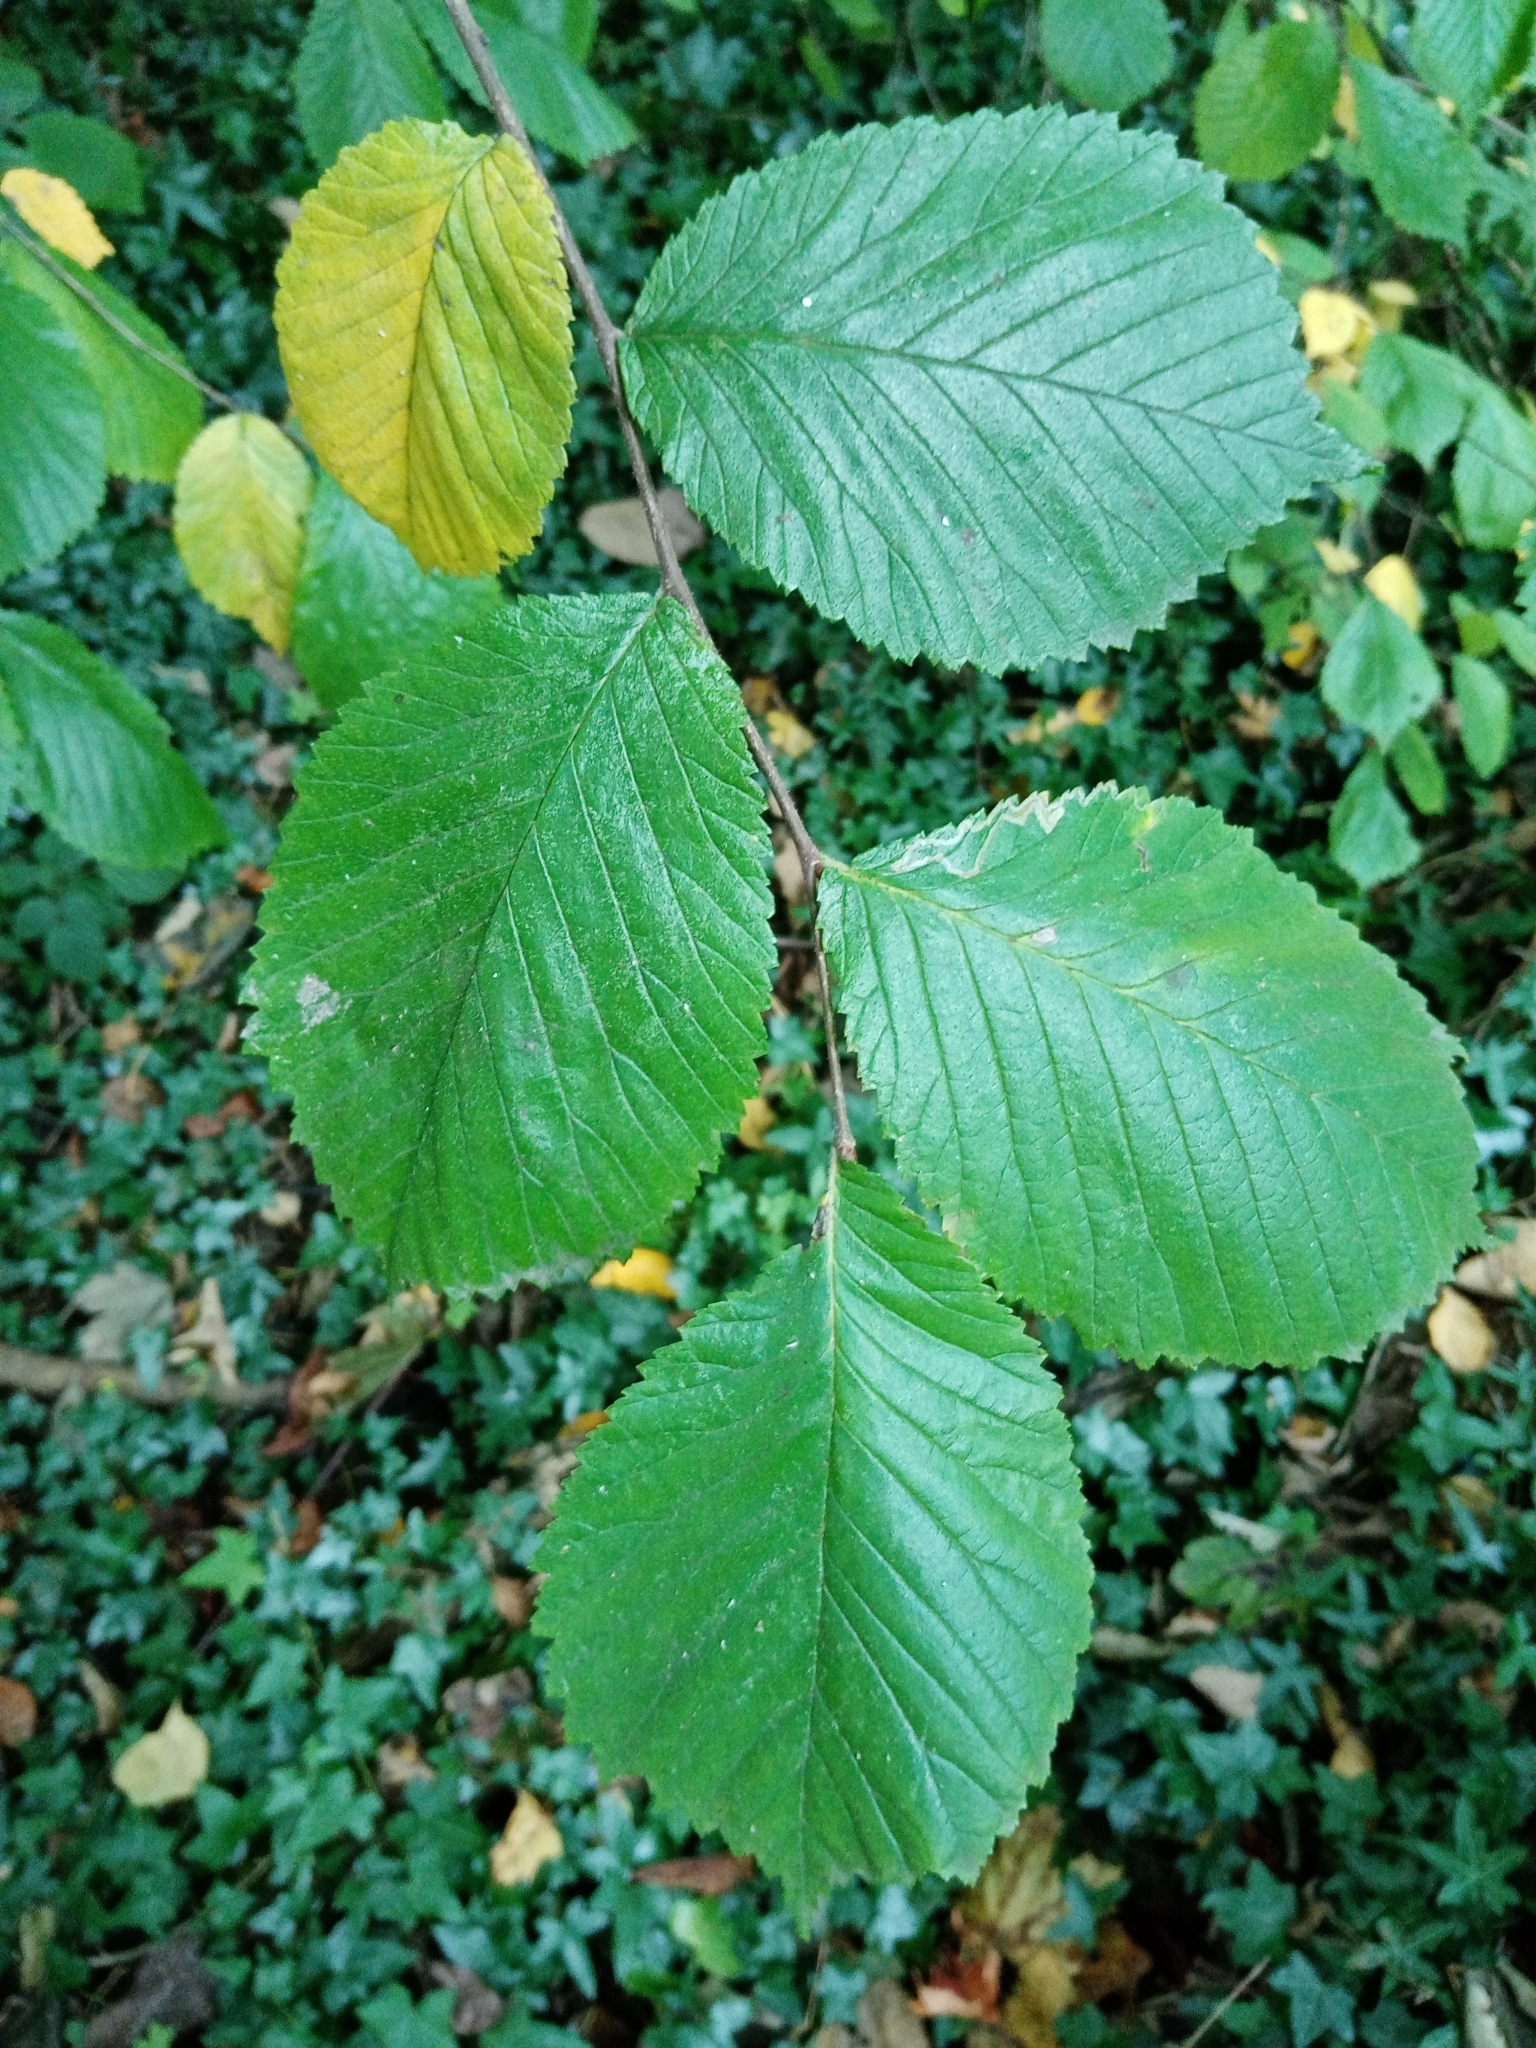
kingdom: Plantae
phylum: Tracheophyta
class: Magnoliopsida
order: Rosales
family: Ulmaceae
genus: Ulmus
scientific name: Ulmus glabra
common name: Wych elm
